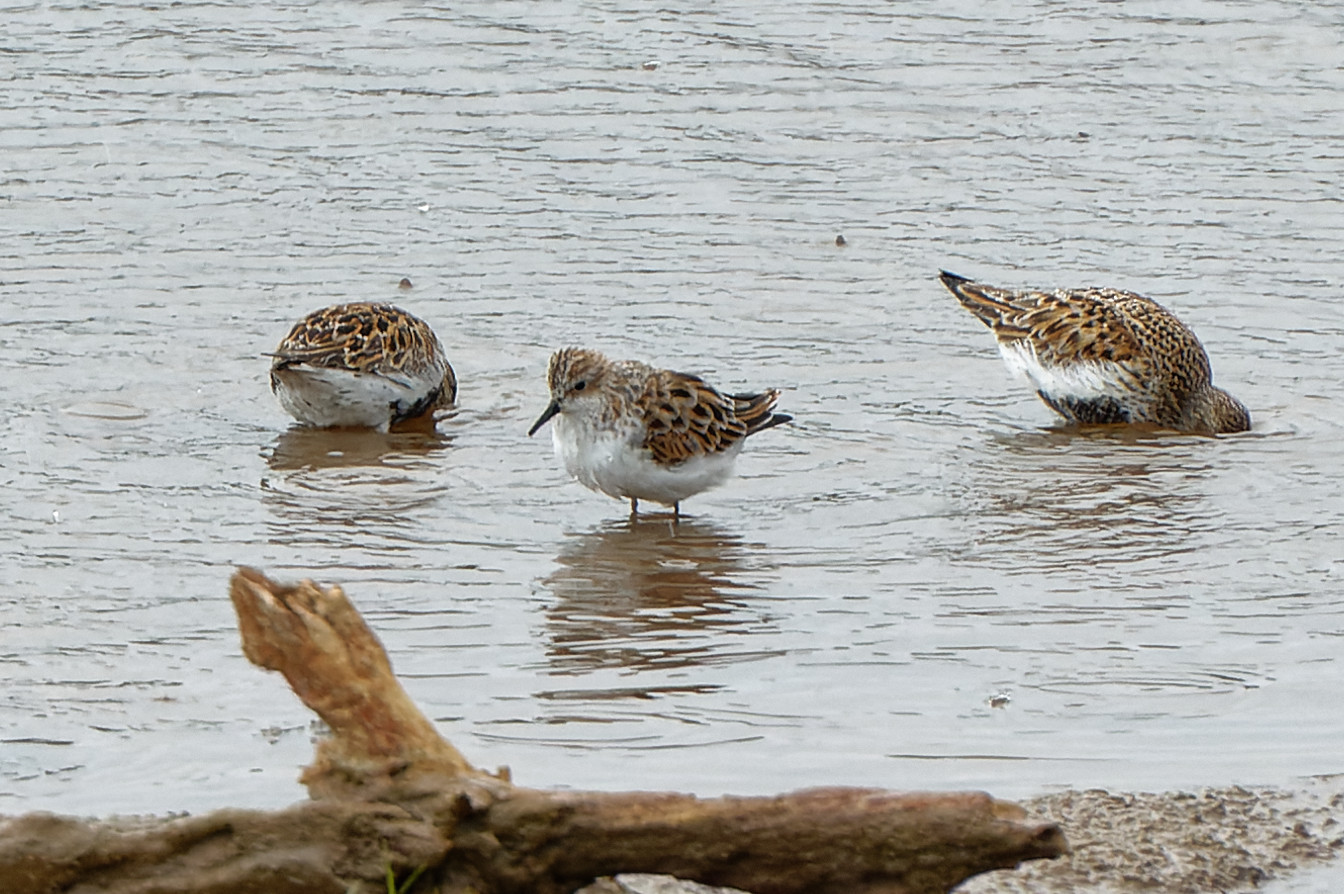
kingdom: Animalia
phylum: Chordata
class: Aves
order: Charadriiformes
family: Scolopacidae
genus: Calidris
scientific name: Calidris minuta
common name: Little stint
